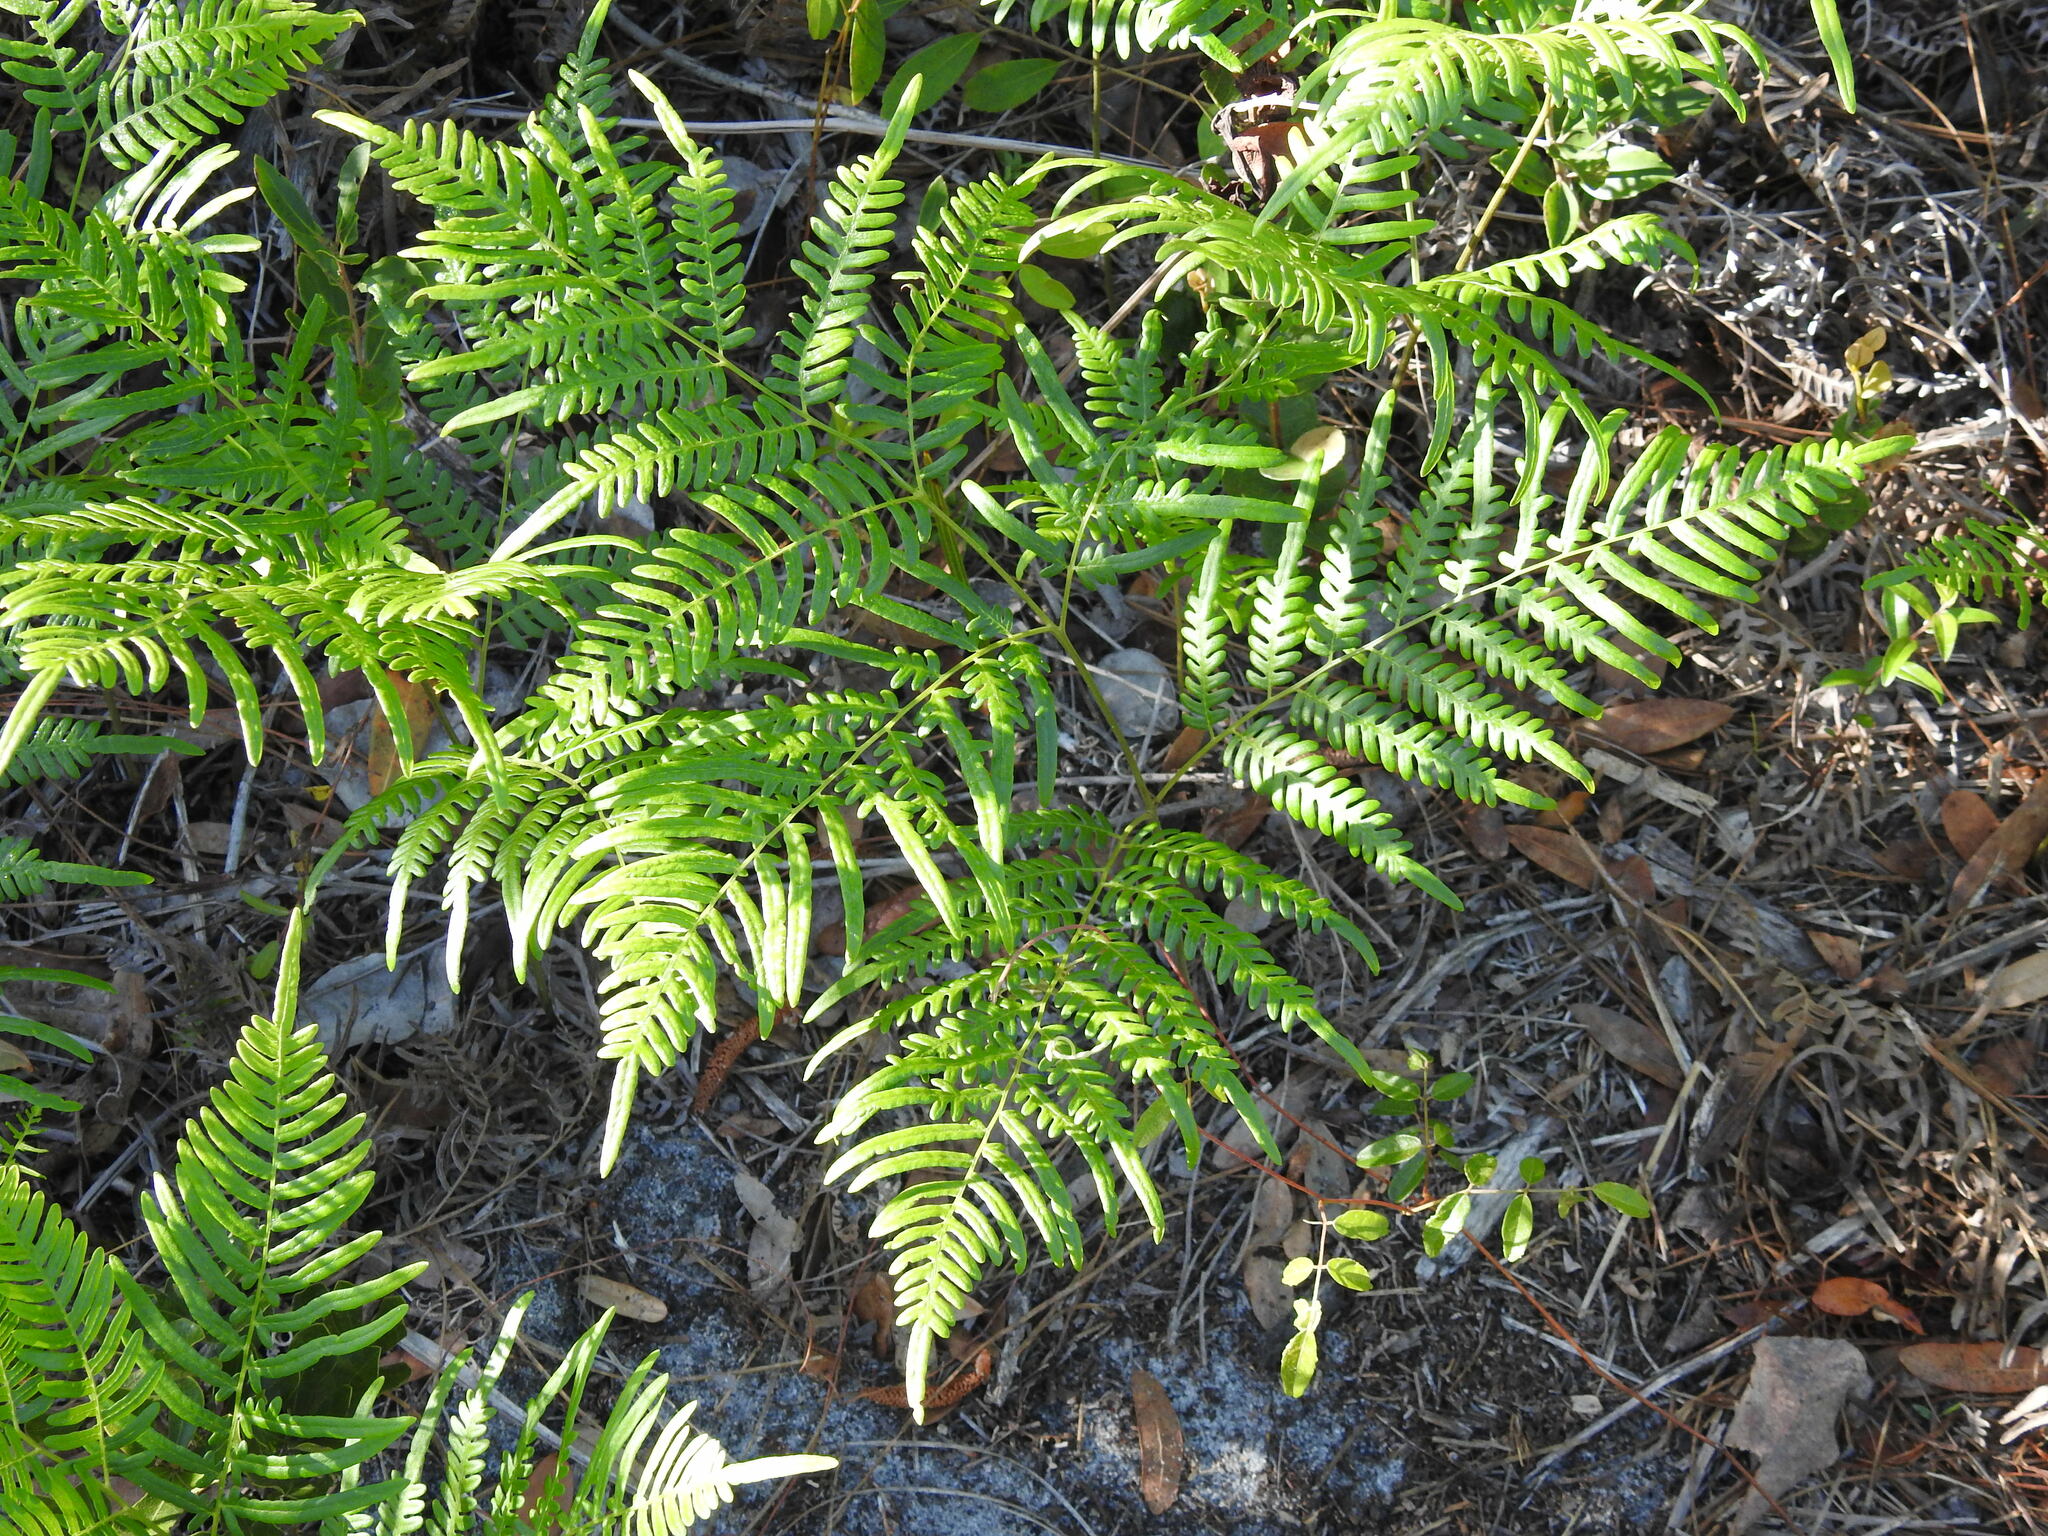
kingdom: Plantae
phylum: Tracheophyta
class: Polypodiopsida
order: Polypodiales
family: Dennstaedtiaceae
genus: Pteridium
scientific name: Pteridium aquilinum
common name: Bracken
